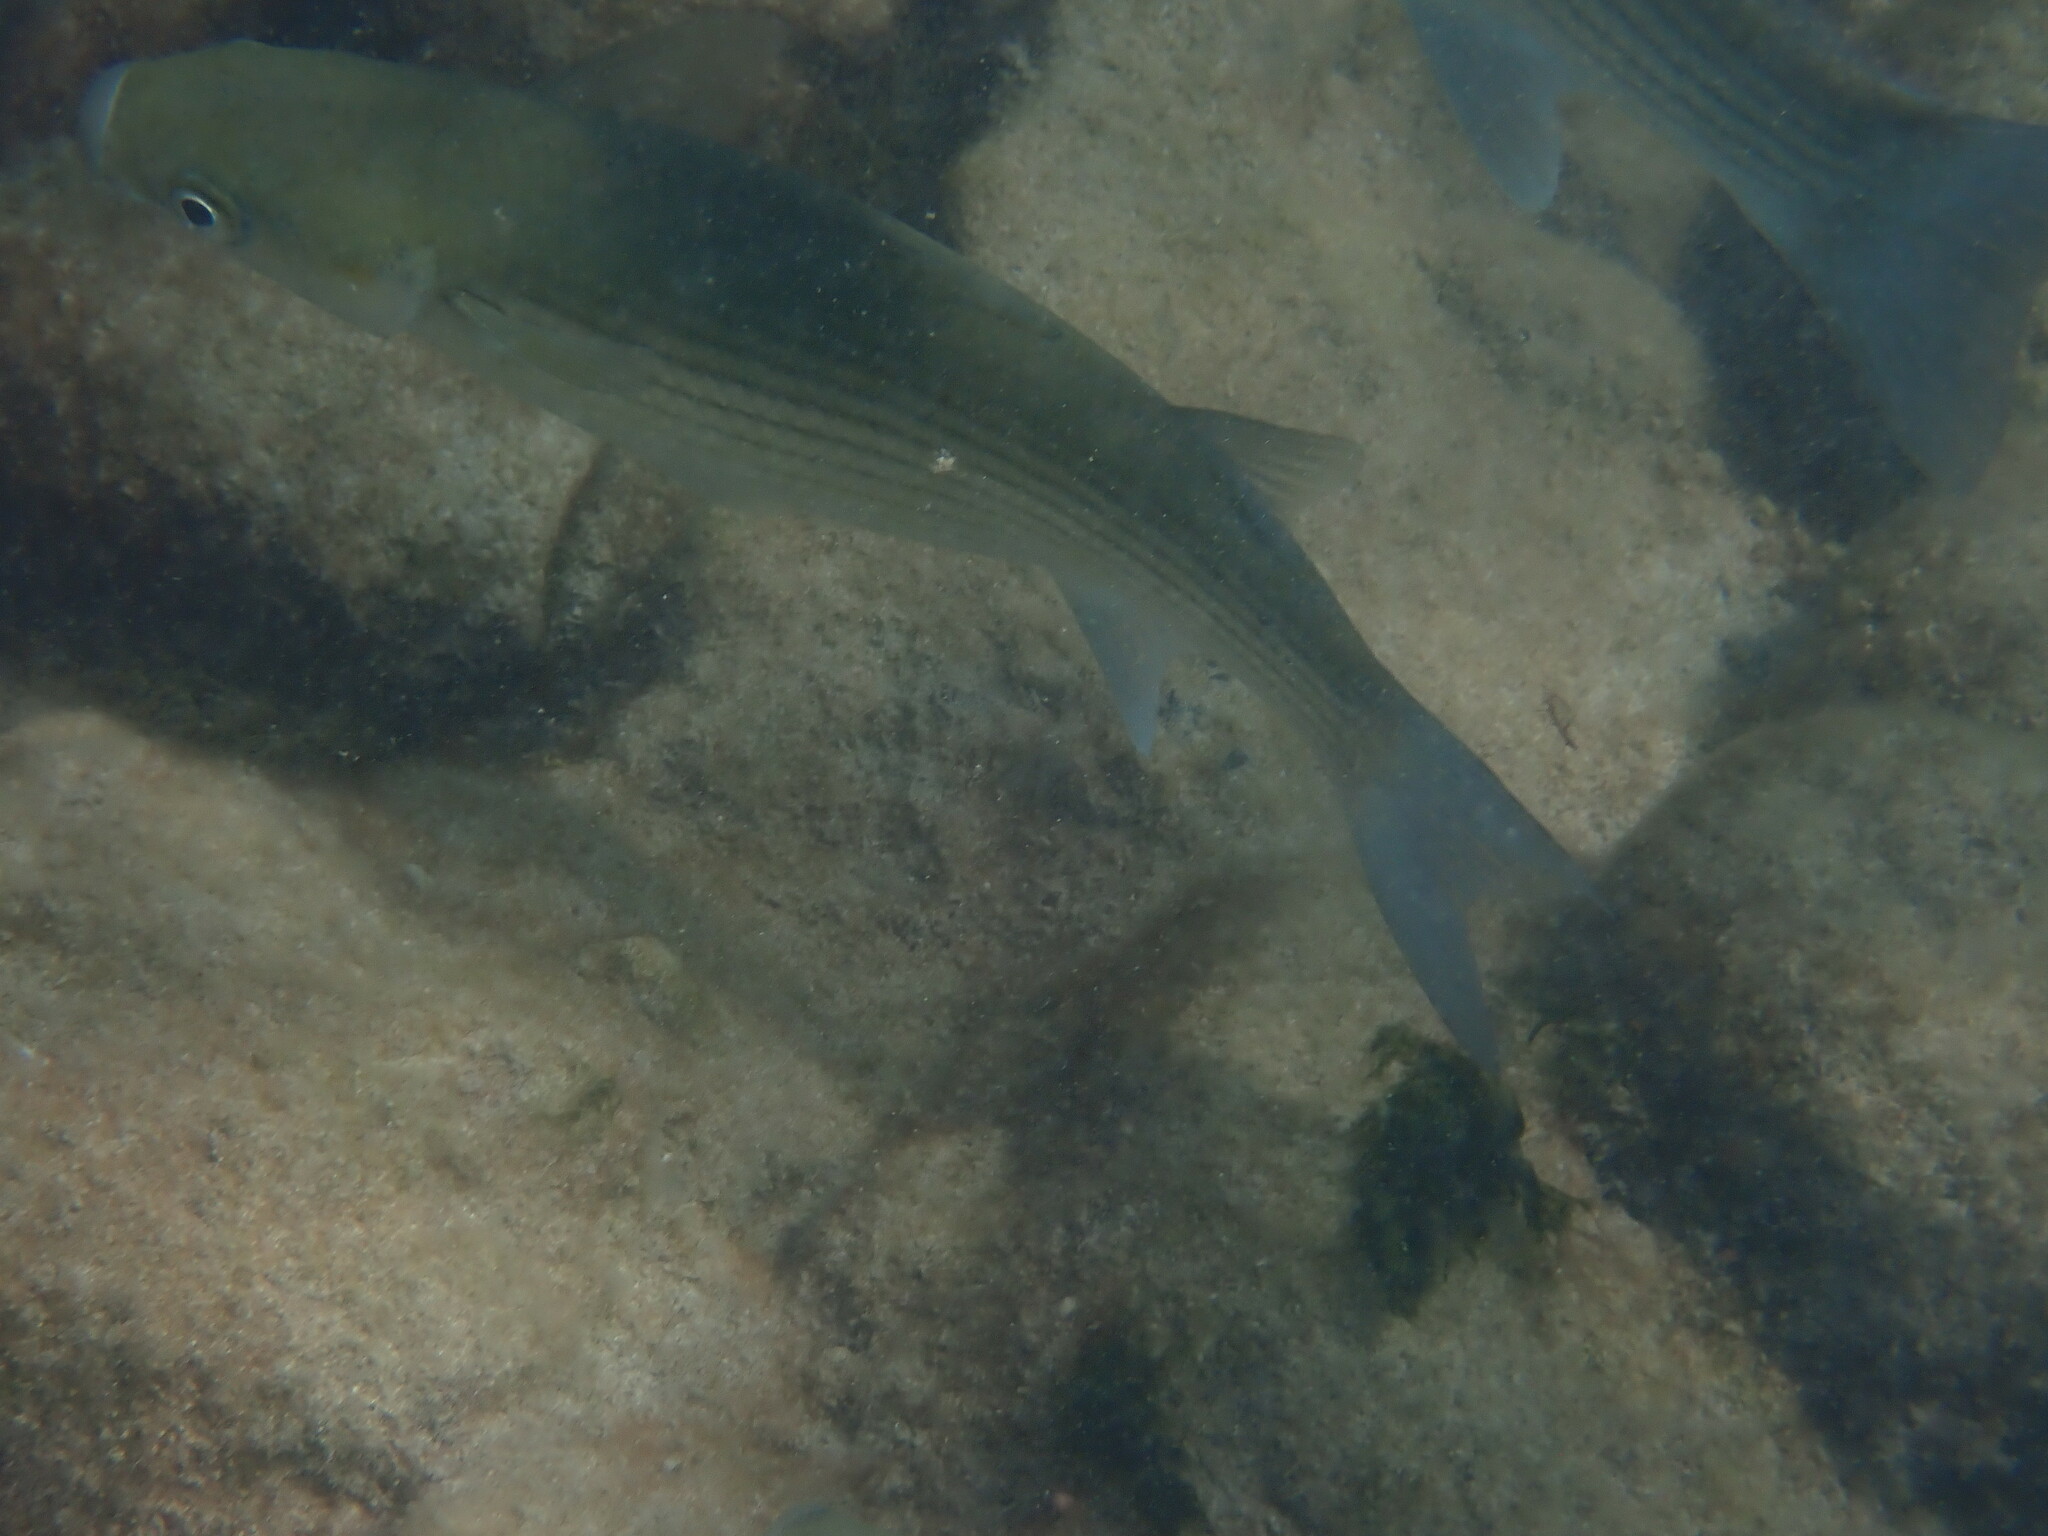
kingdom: Animalia
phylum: Chordata
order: Mugiliformes
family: Mugilidae
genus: Chelon
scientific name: Chelon labrosus
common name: Thick-lipped mullet
